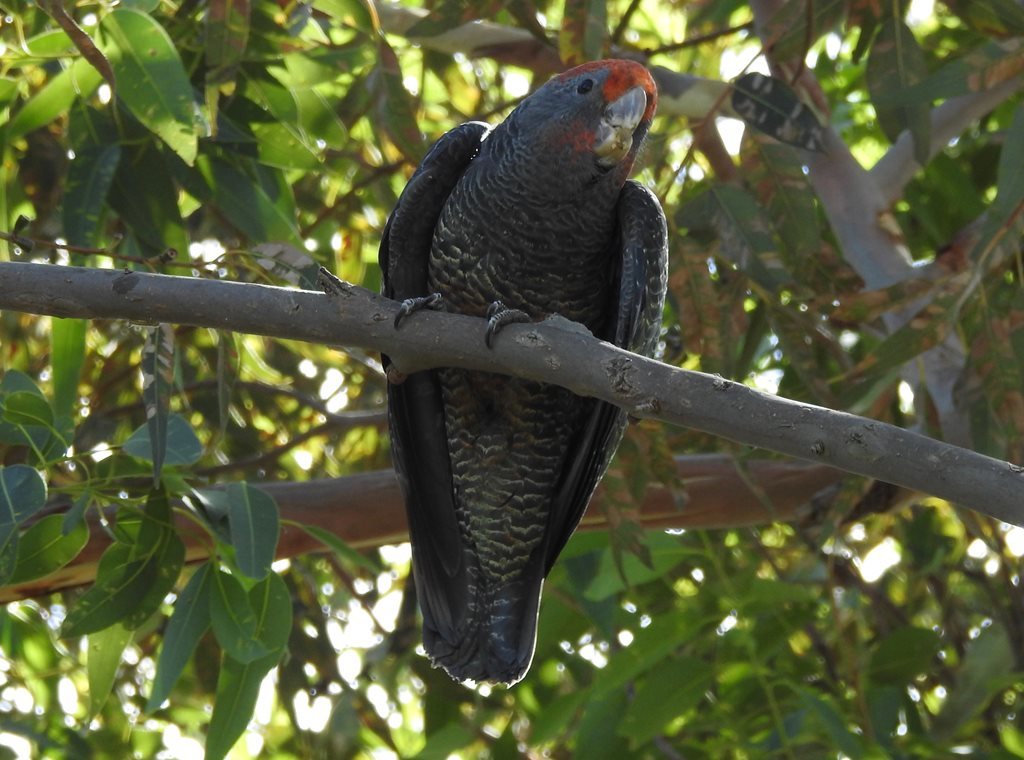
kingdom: Animalia
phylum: Chordata
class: Aves
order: Psittaciformes
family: Psittacidae
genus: Callocephalon
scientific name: Callocephalon fimbriatum
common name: Gang-gang cockatoo
